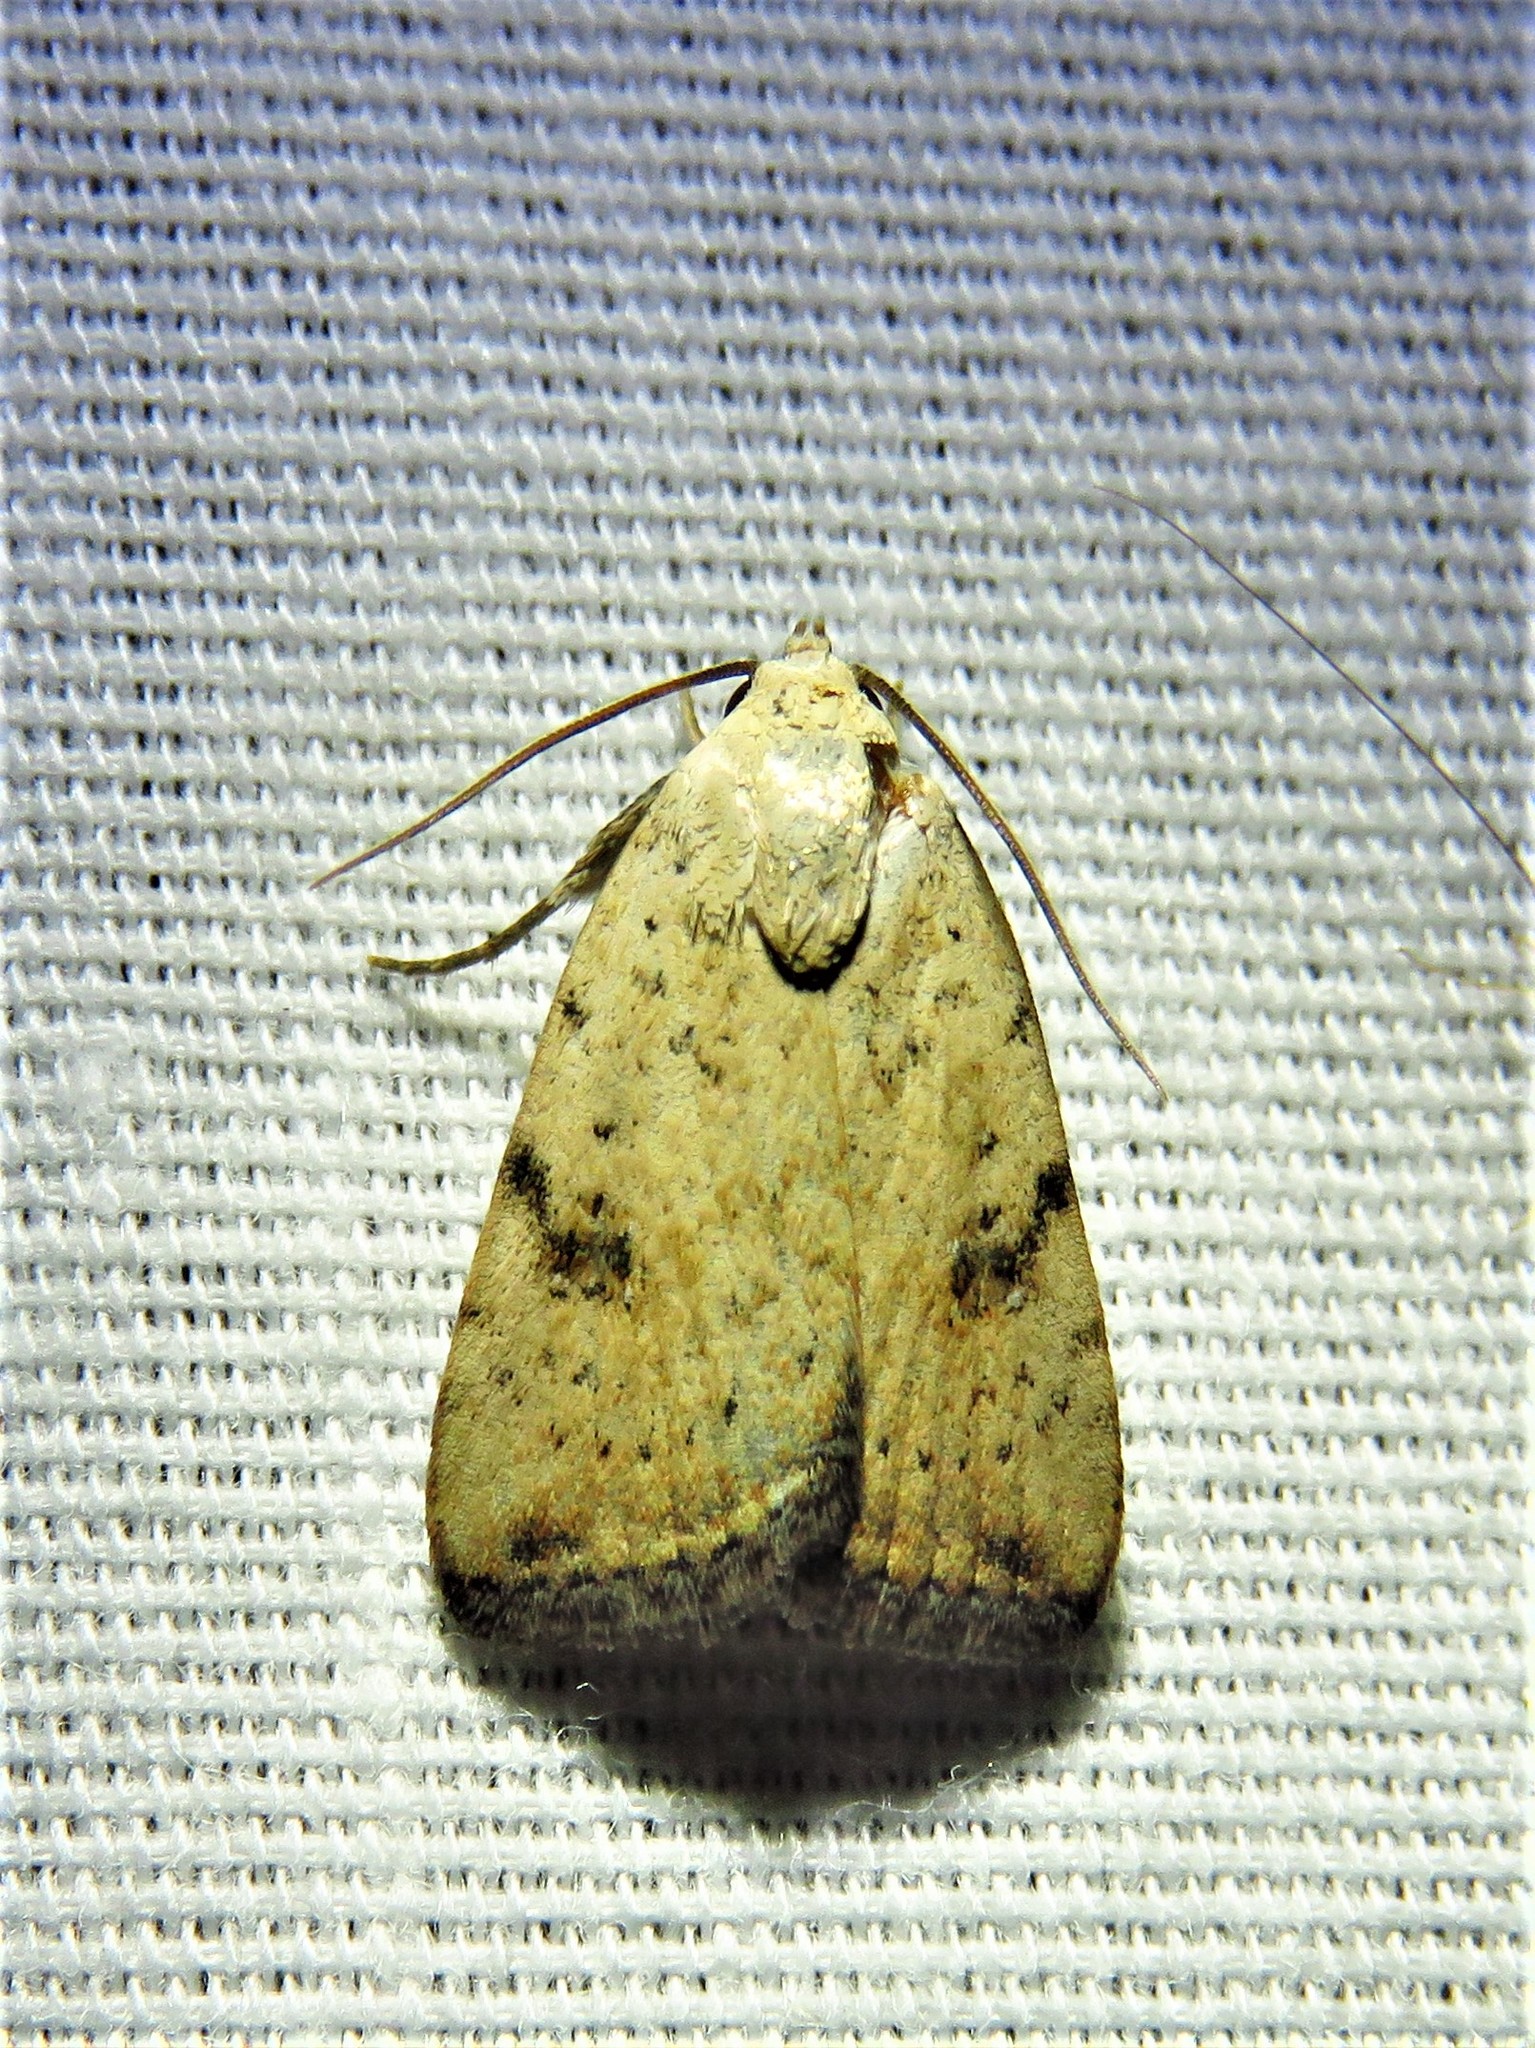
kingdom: Animalia
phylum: Arthropoda
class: Insecta
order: Lepidoptera
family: Noctuidae
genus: Micrathetis
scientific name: Micrathetis triplex
